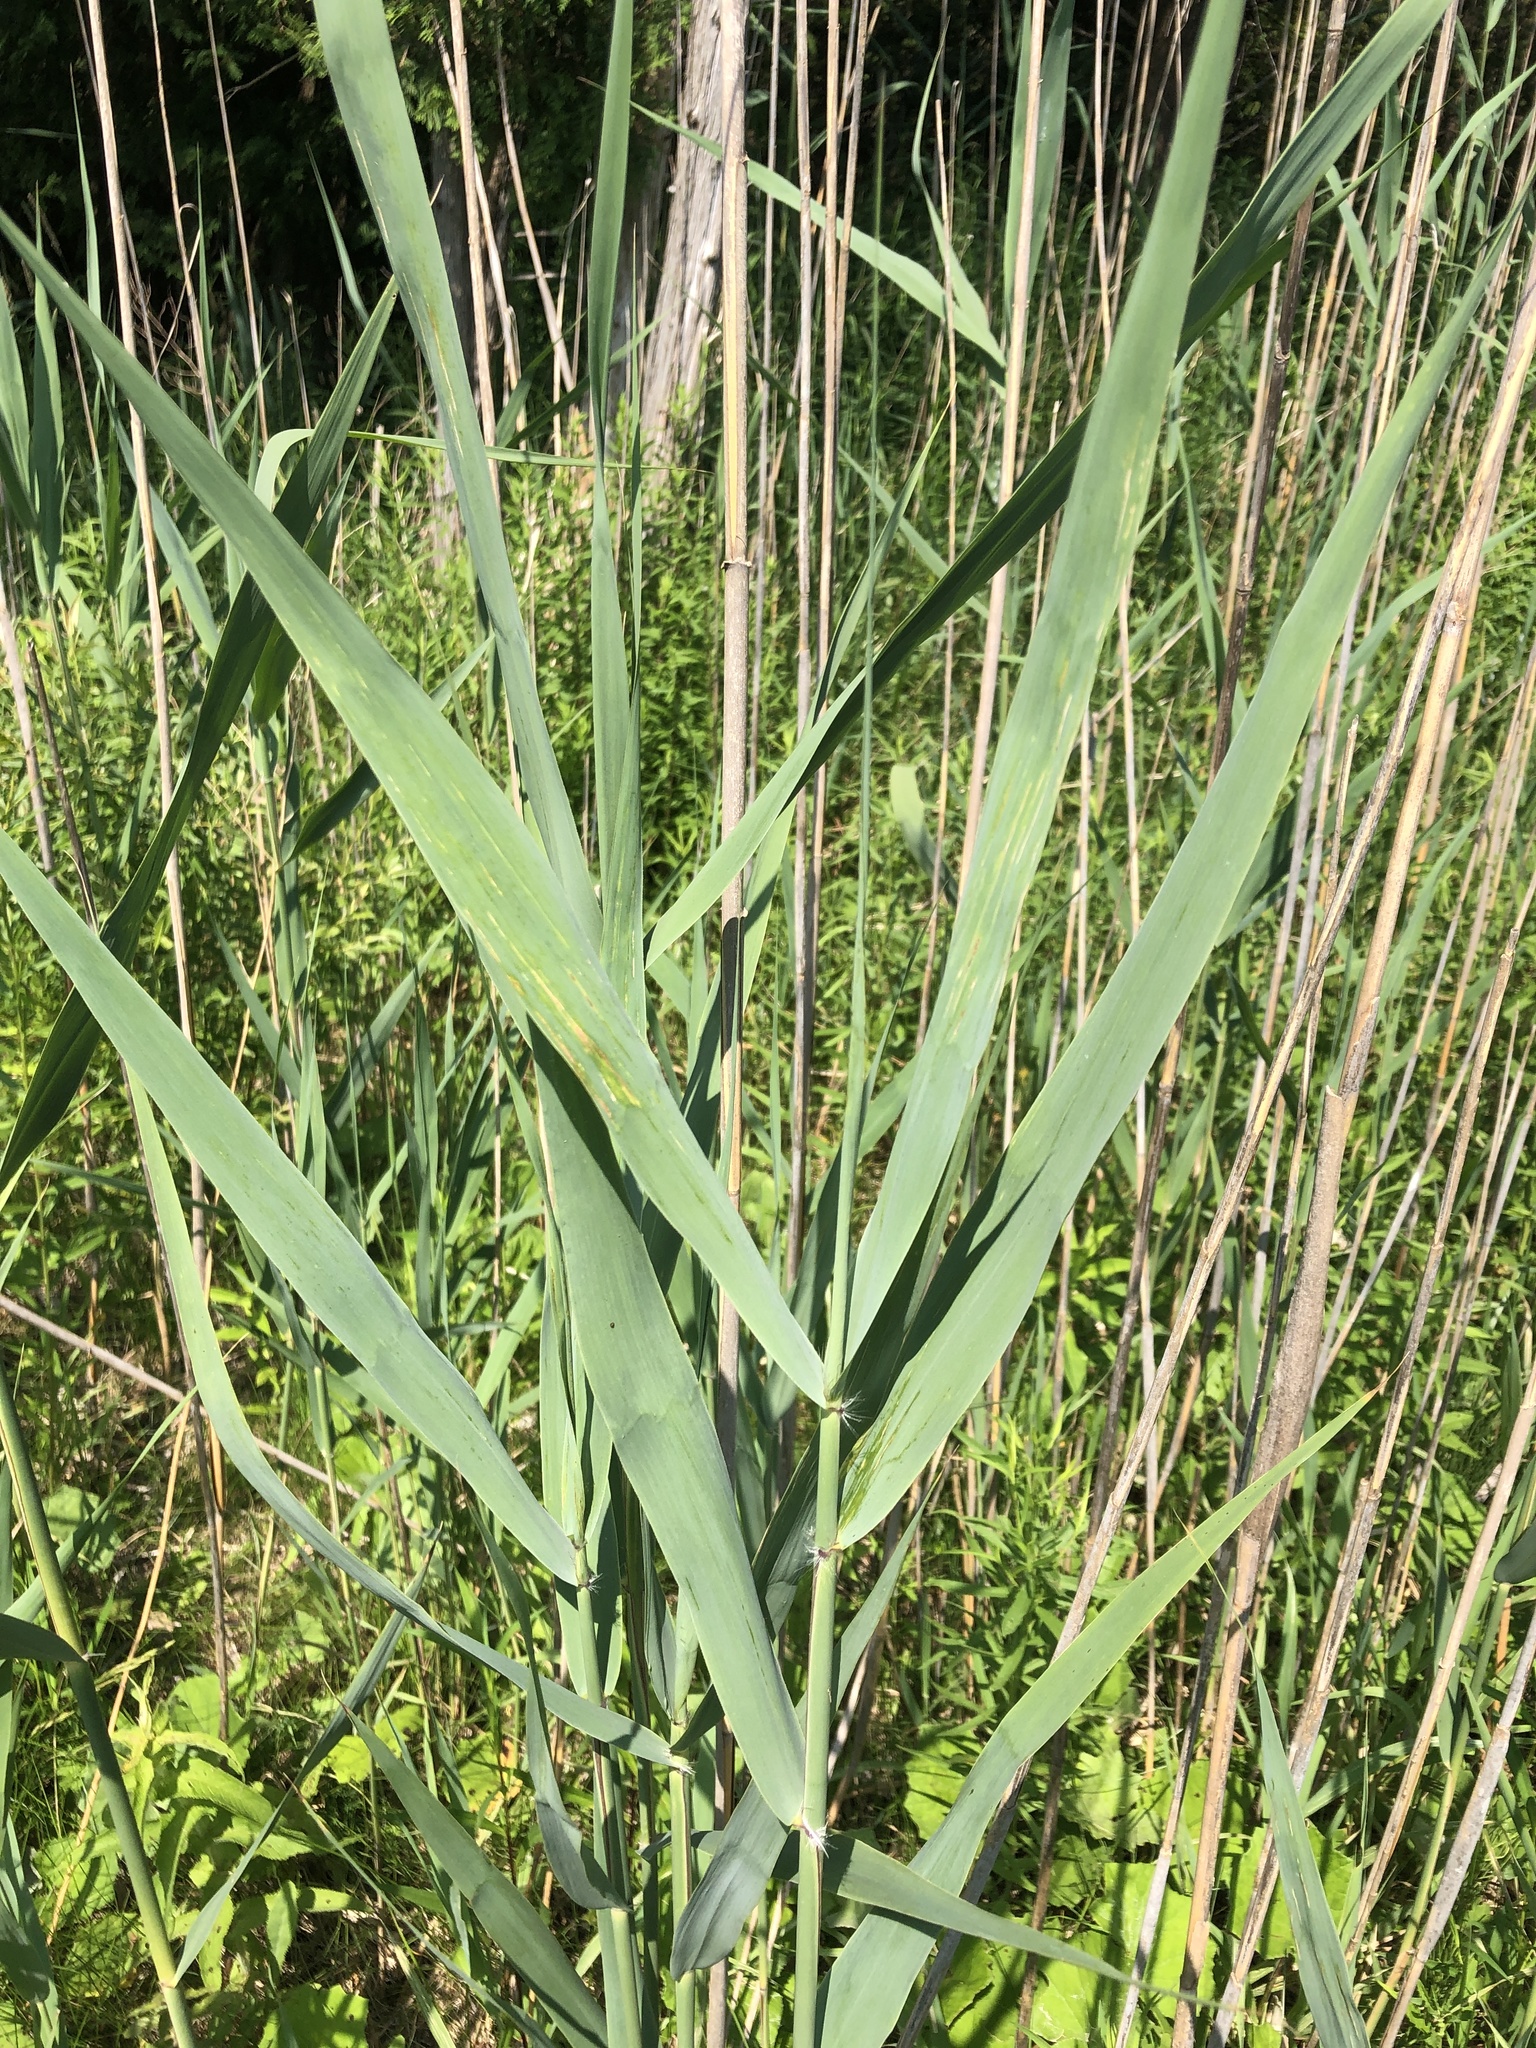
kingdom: Plantae
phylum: Tracheophyta
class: Liliopsida
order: Poales
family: Poaceae
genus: Phragmites
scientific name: Phragmites australis
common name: Common reed
